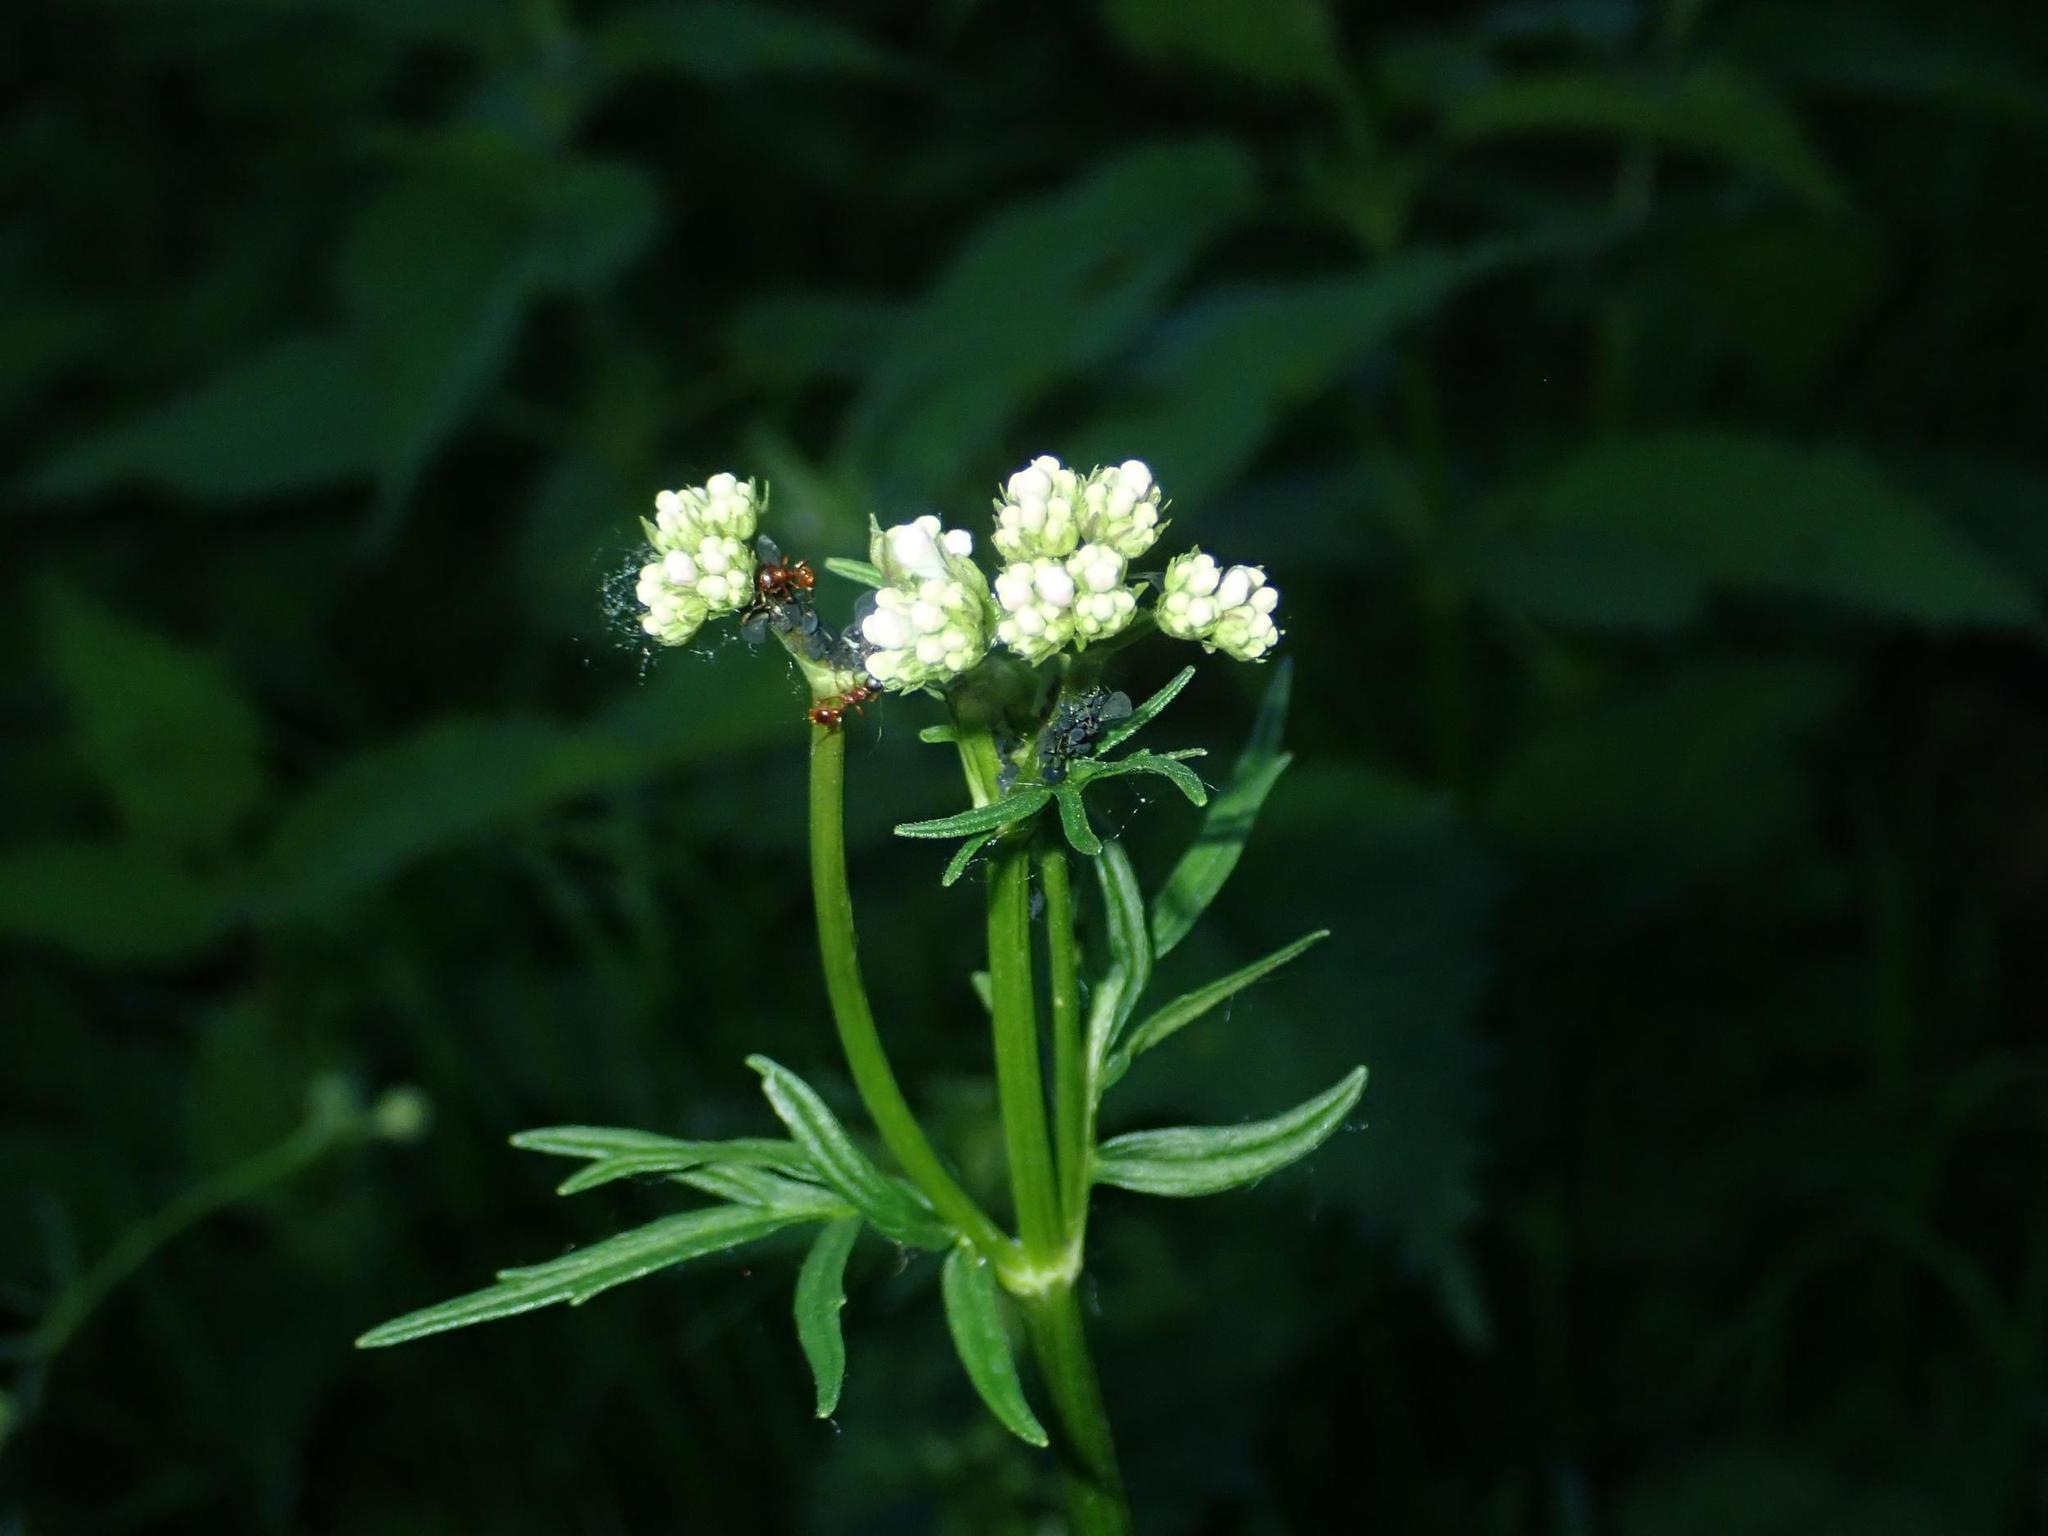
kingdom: Plantae
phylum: Tracheophyta
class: Magnoliopsida
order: Dipsacales
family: Caprifoliaceae
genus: Valeriana
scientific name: Valeriana officinalis
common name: Common valerian
